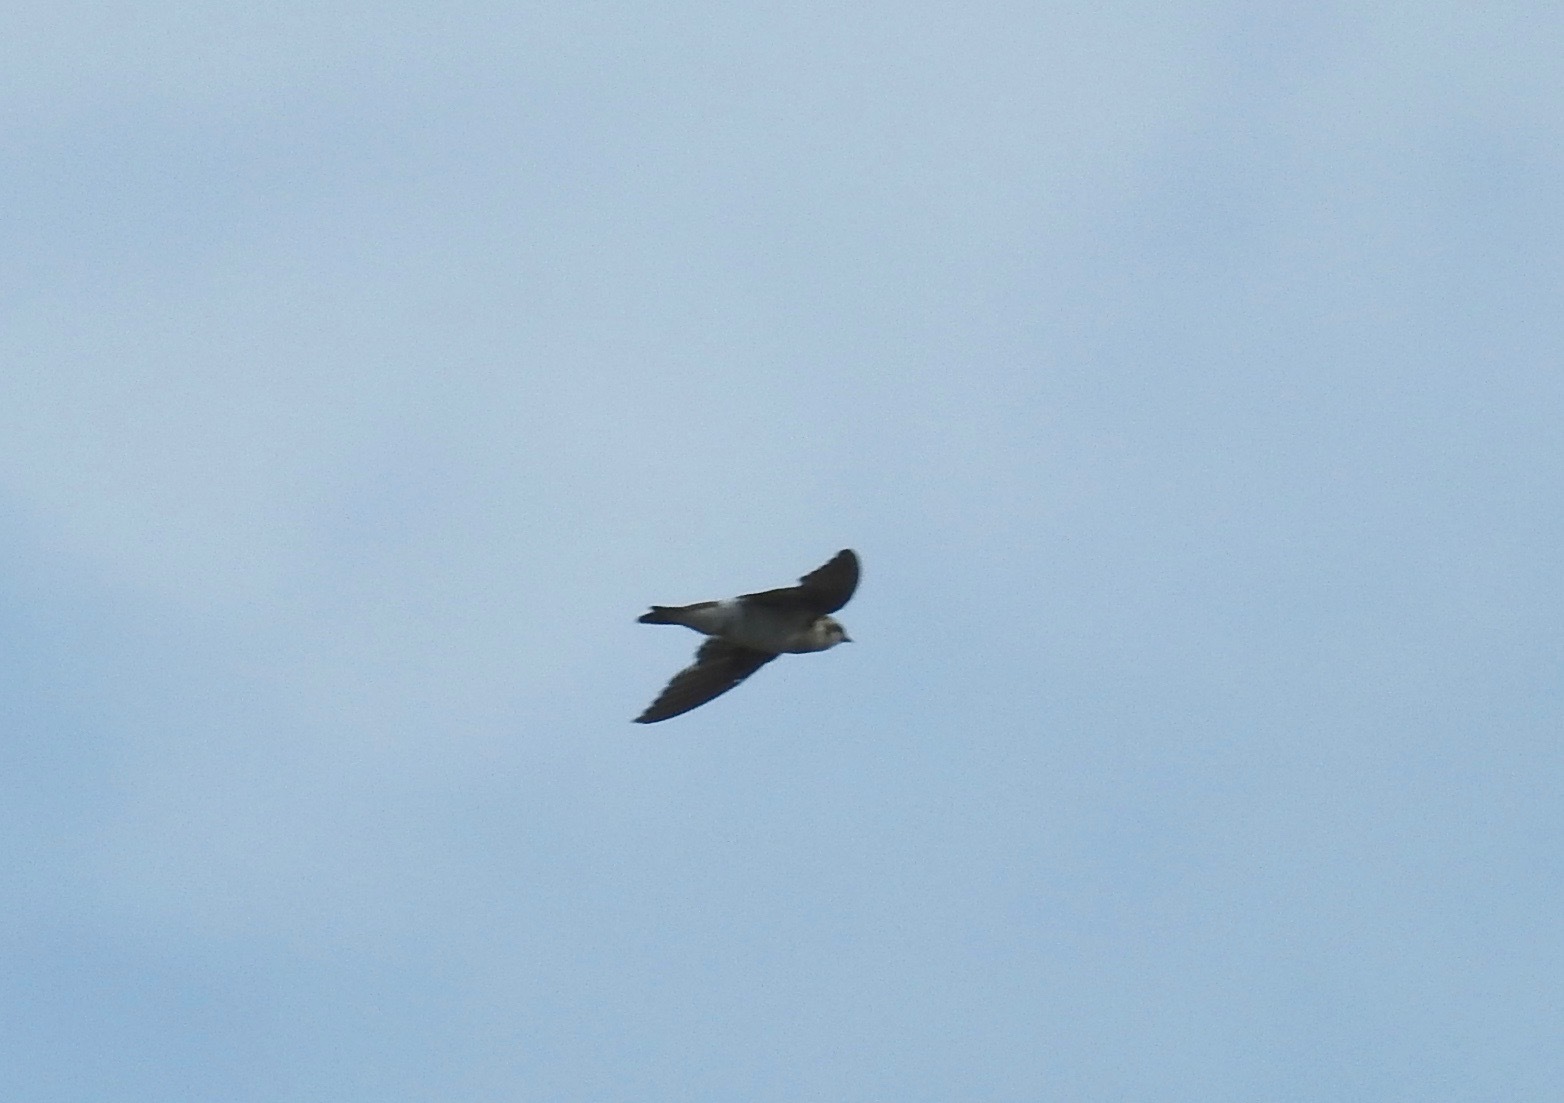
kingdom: Animalia
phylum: Chordata
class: Aves
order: Passeriformes
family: Hirundinidae
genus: Tachycineta
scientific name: Tachycineta thalassina
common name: Violet-green swallow
